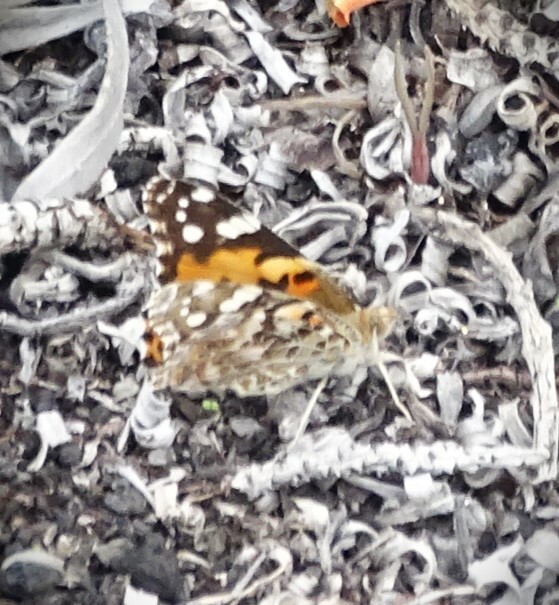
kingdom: Animalia
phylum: Arthropoda
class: Insecta
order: Lepidoptera
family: Nymphalidae
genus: Vanessa
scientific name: Vanessa cardui
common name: Painted lady
